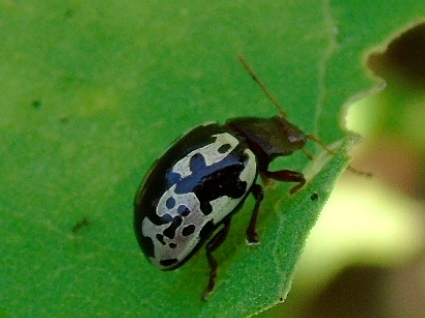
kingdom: Animalia
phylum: Arthropoda
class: Insecta
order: Coleoptera
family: Chrysomelidae
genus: Calligrapha
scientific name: Calligrapha intermedia
